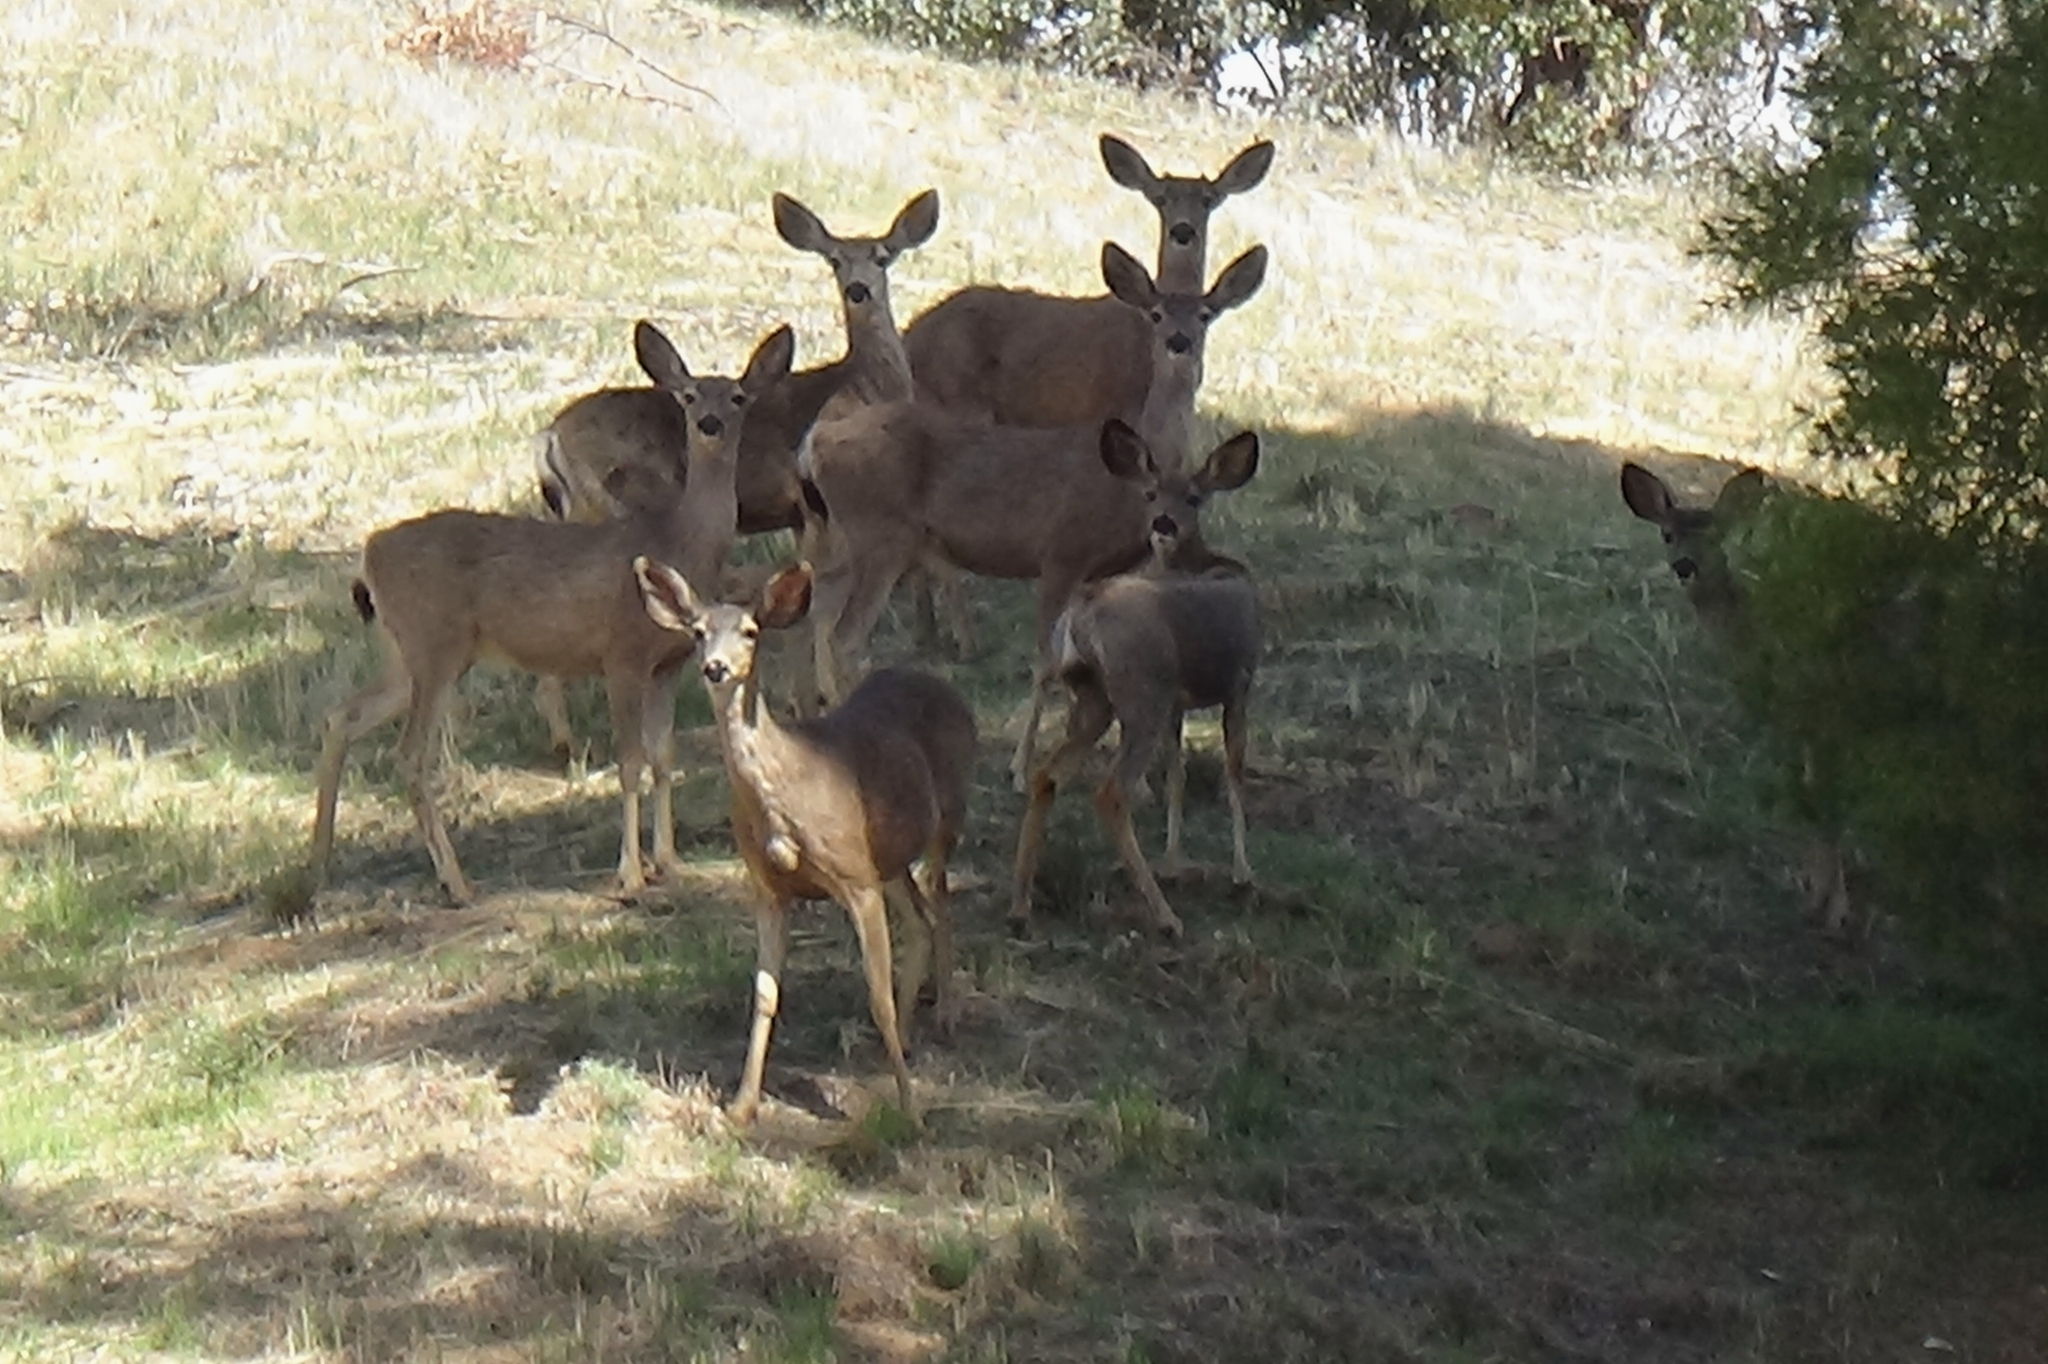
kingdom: Animalia
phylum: Chordata
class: Mammalia
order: Artiodactyla
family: Cervidae
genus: Odocoileus
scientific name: Odocoileus hemionus
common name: Mule deer
